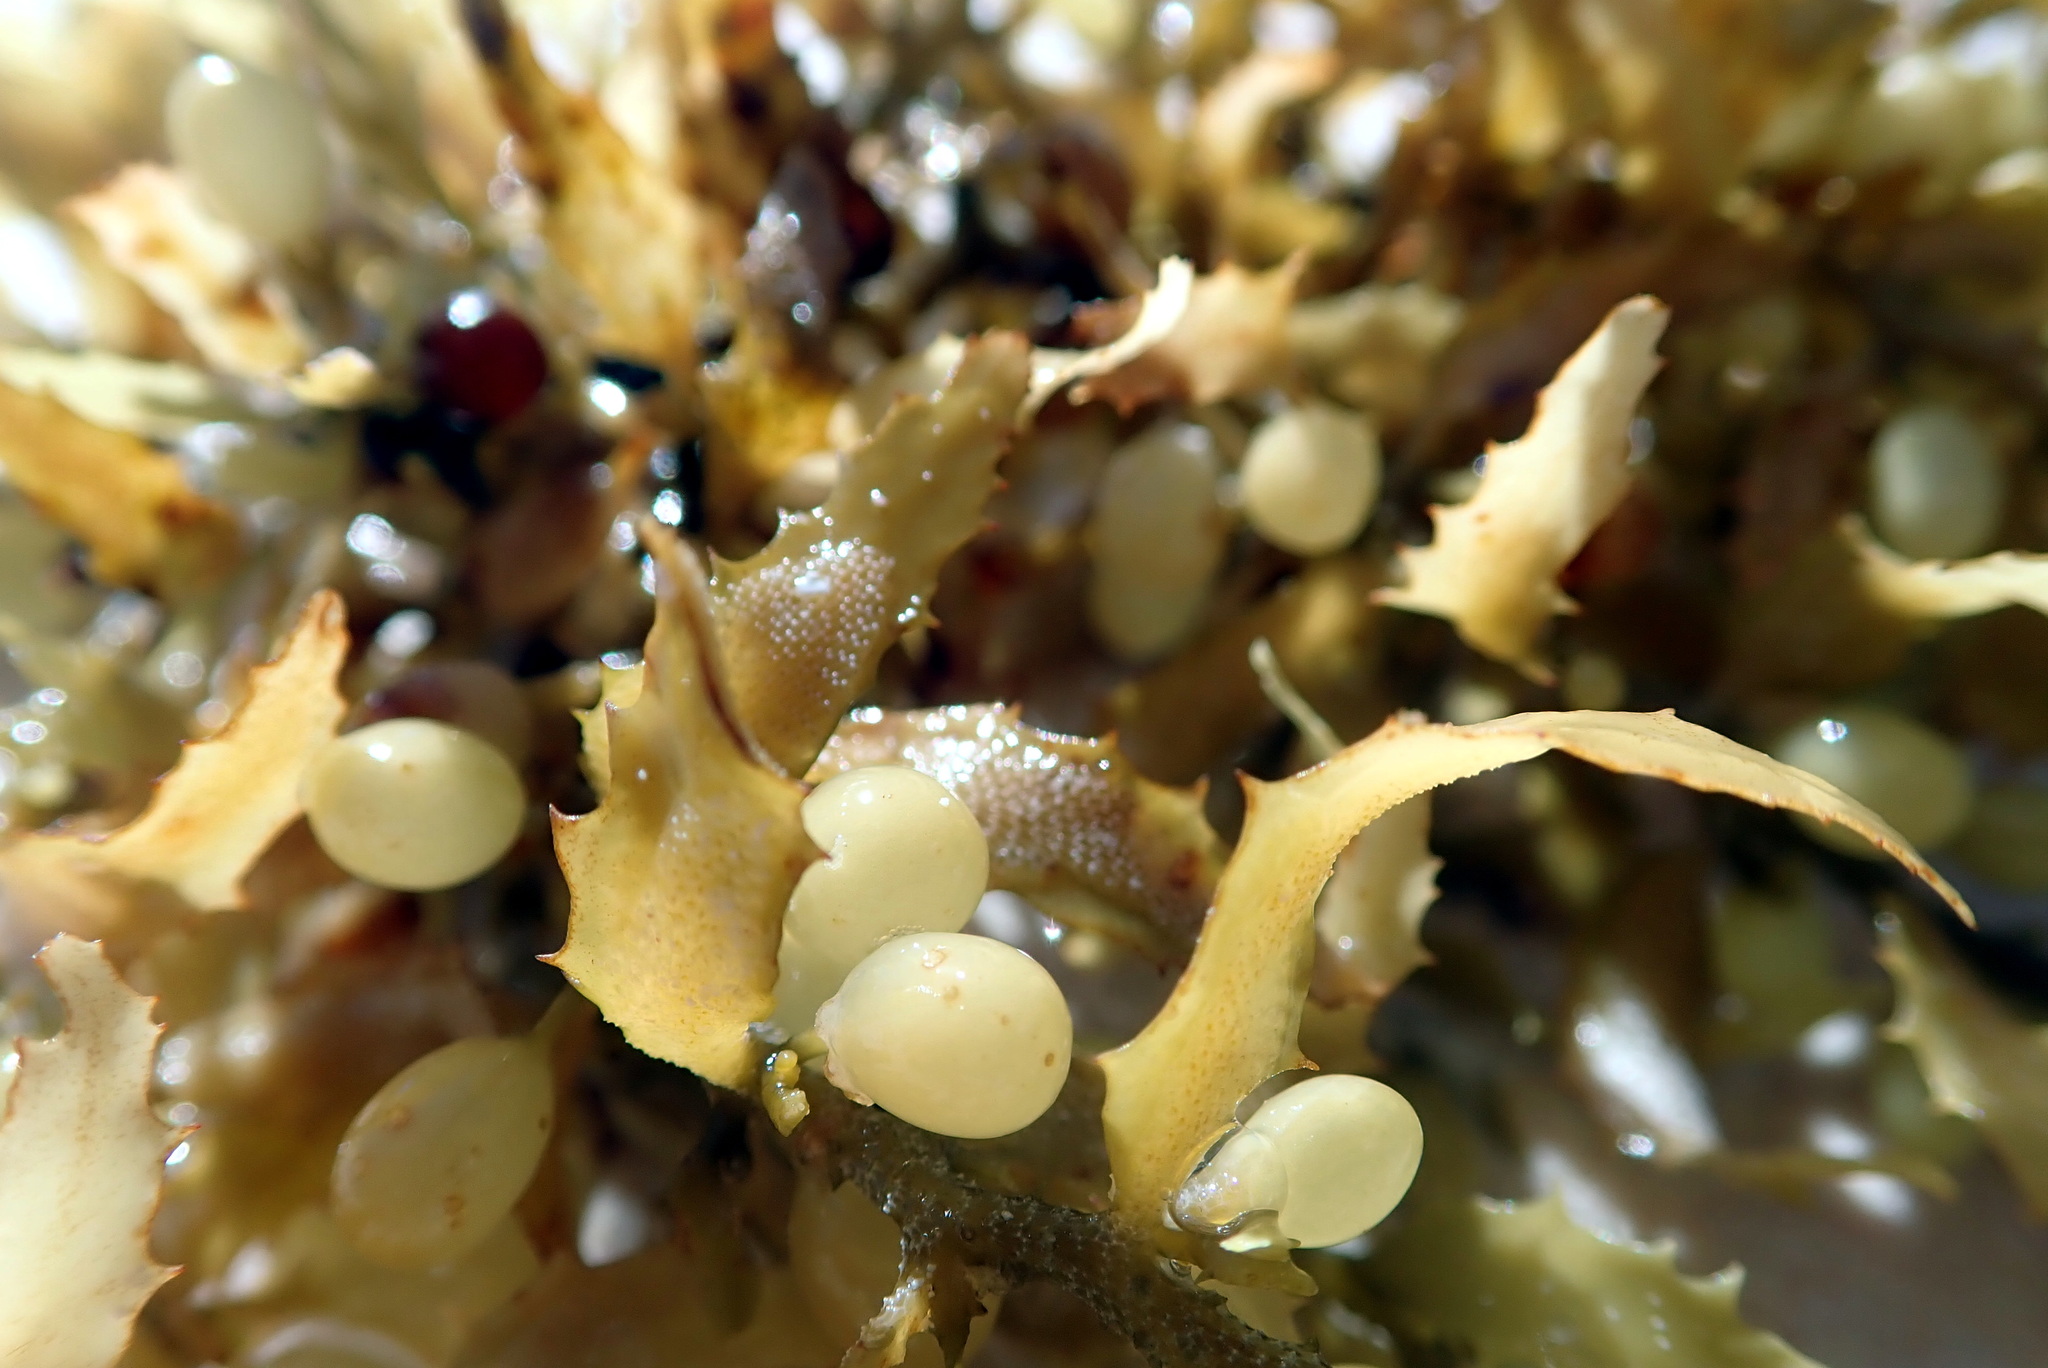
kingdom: Chromista
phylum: Ochrophyta
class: Phaeophyceae
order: Fucales
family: Sargassaceae
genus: Sargassum
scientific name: Sargassum fluitans
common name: Sargassum seaweed
